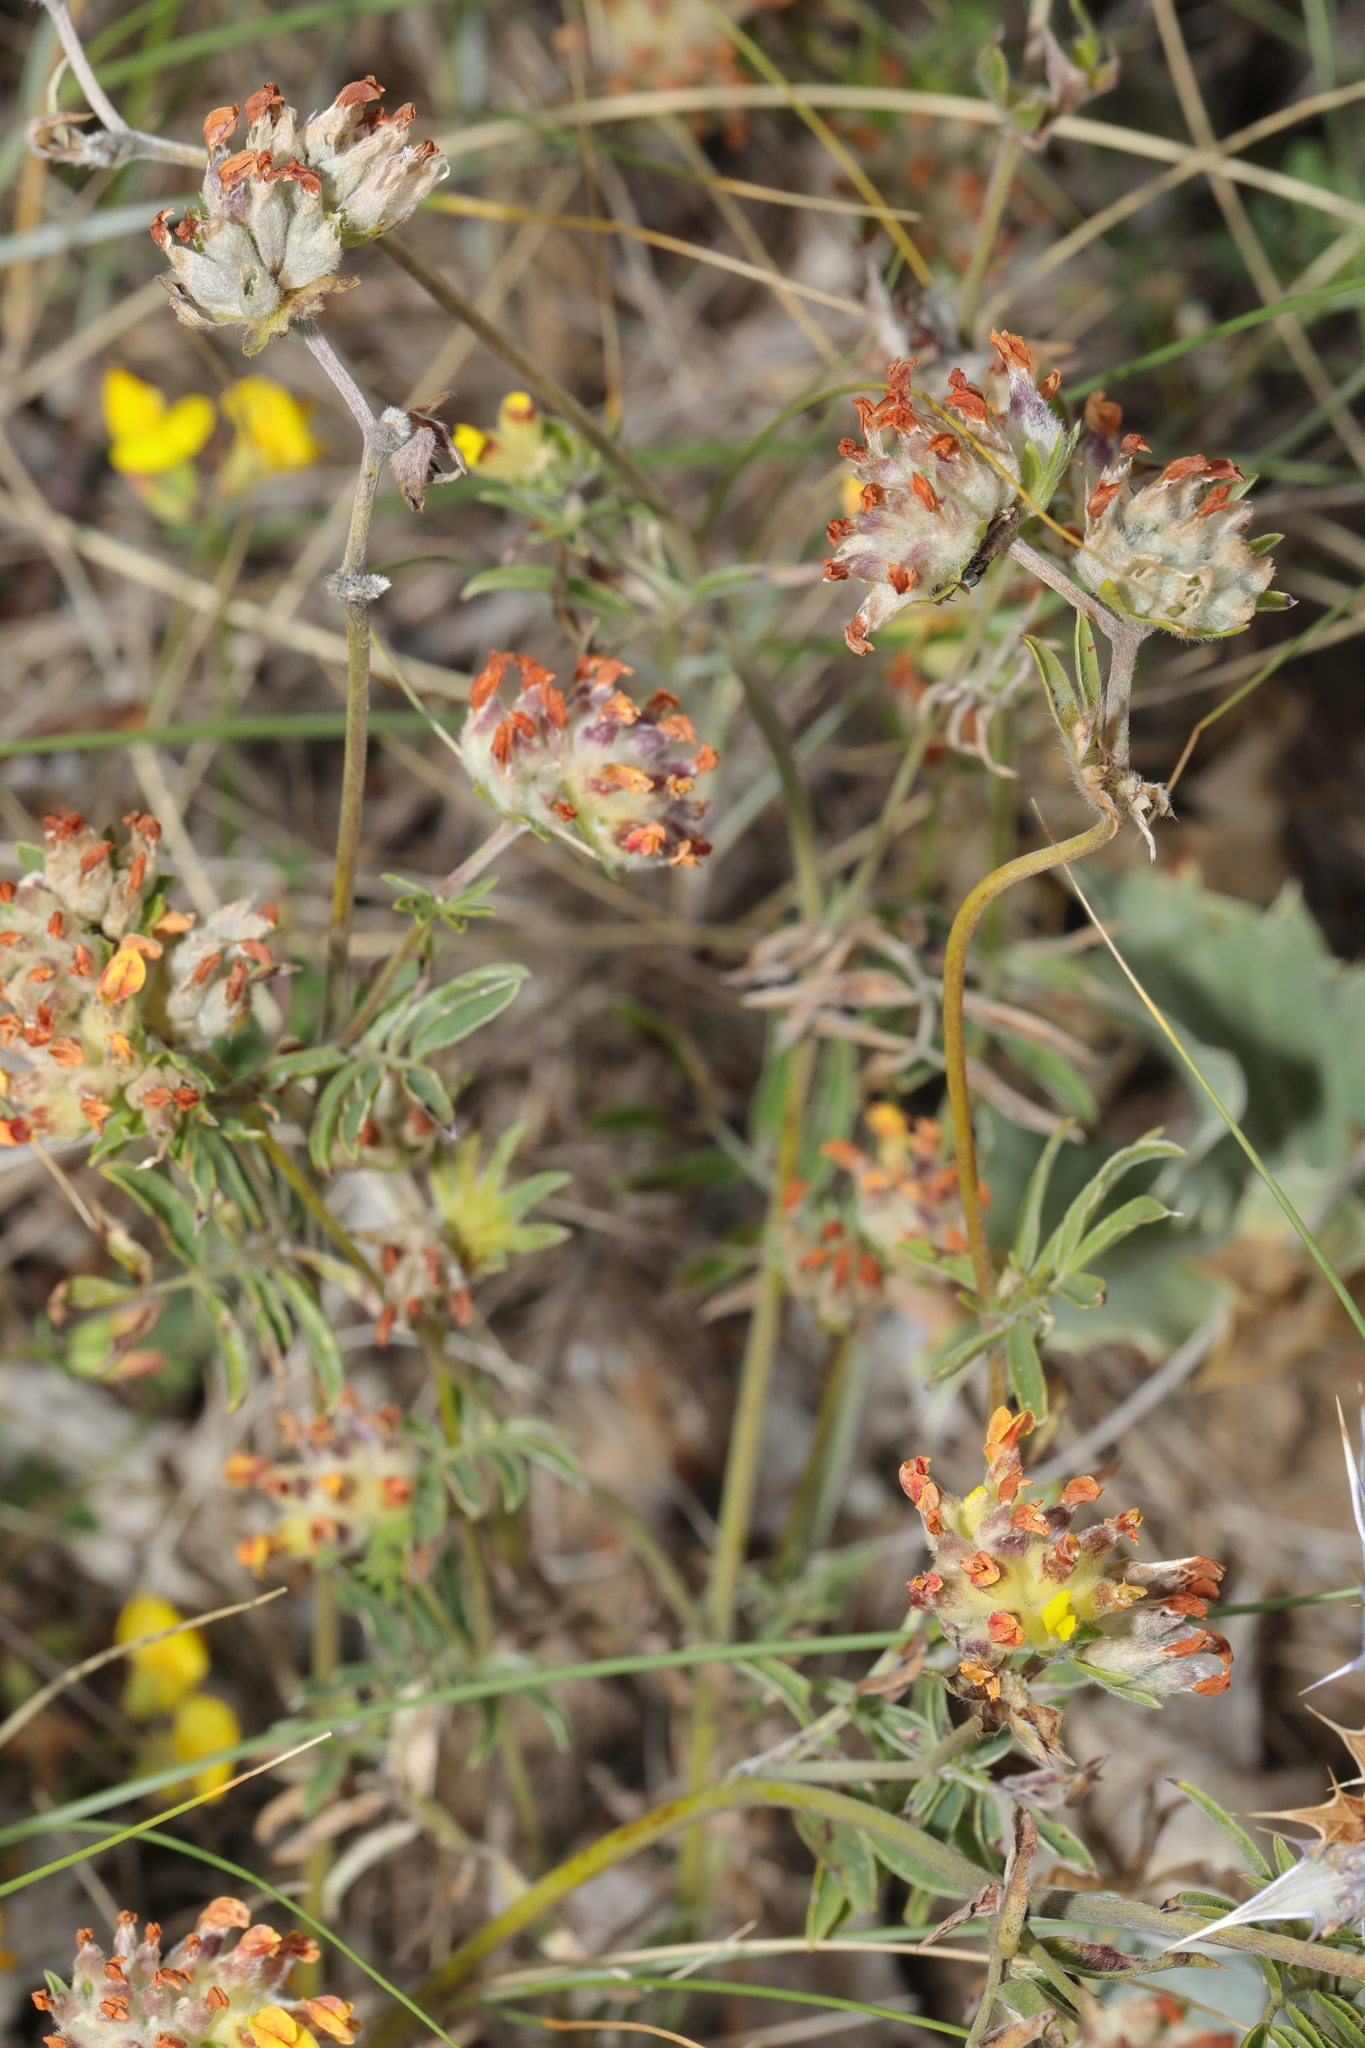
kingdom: Plantae
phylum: Tracheophyta
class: Magnoliopsida
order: Fabales
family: Fabaceae
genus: Anthyllis
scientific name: Anthyllis vulneraria
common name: Kidney vetch
